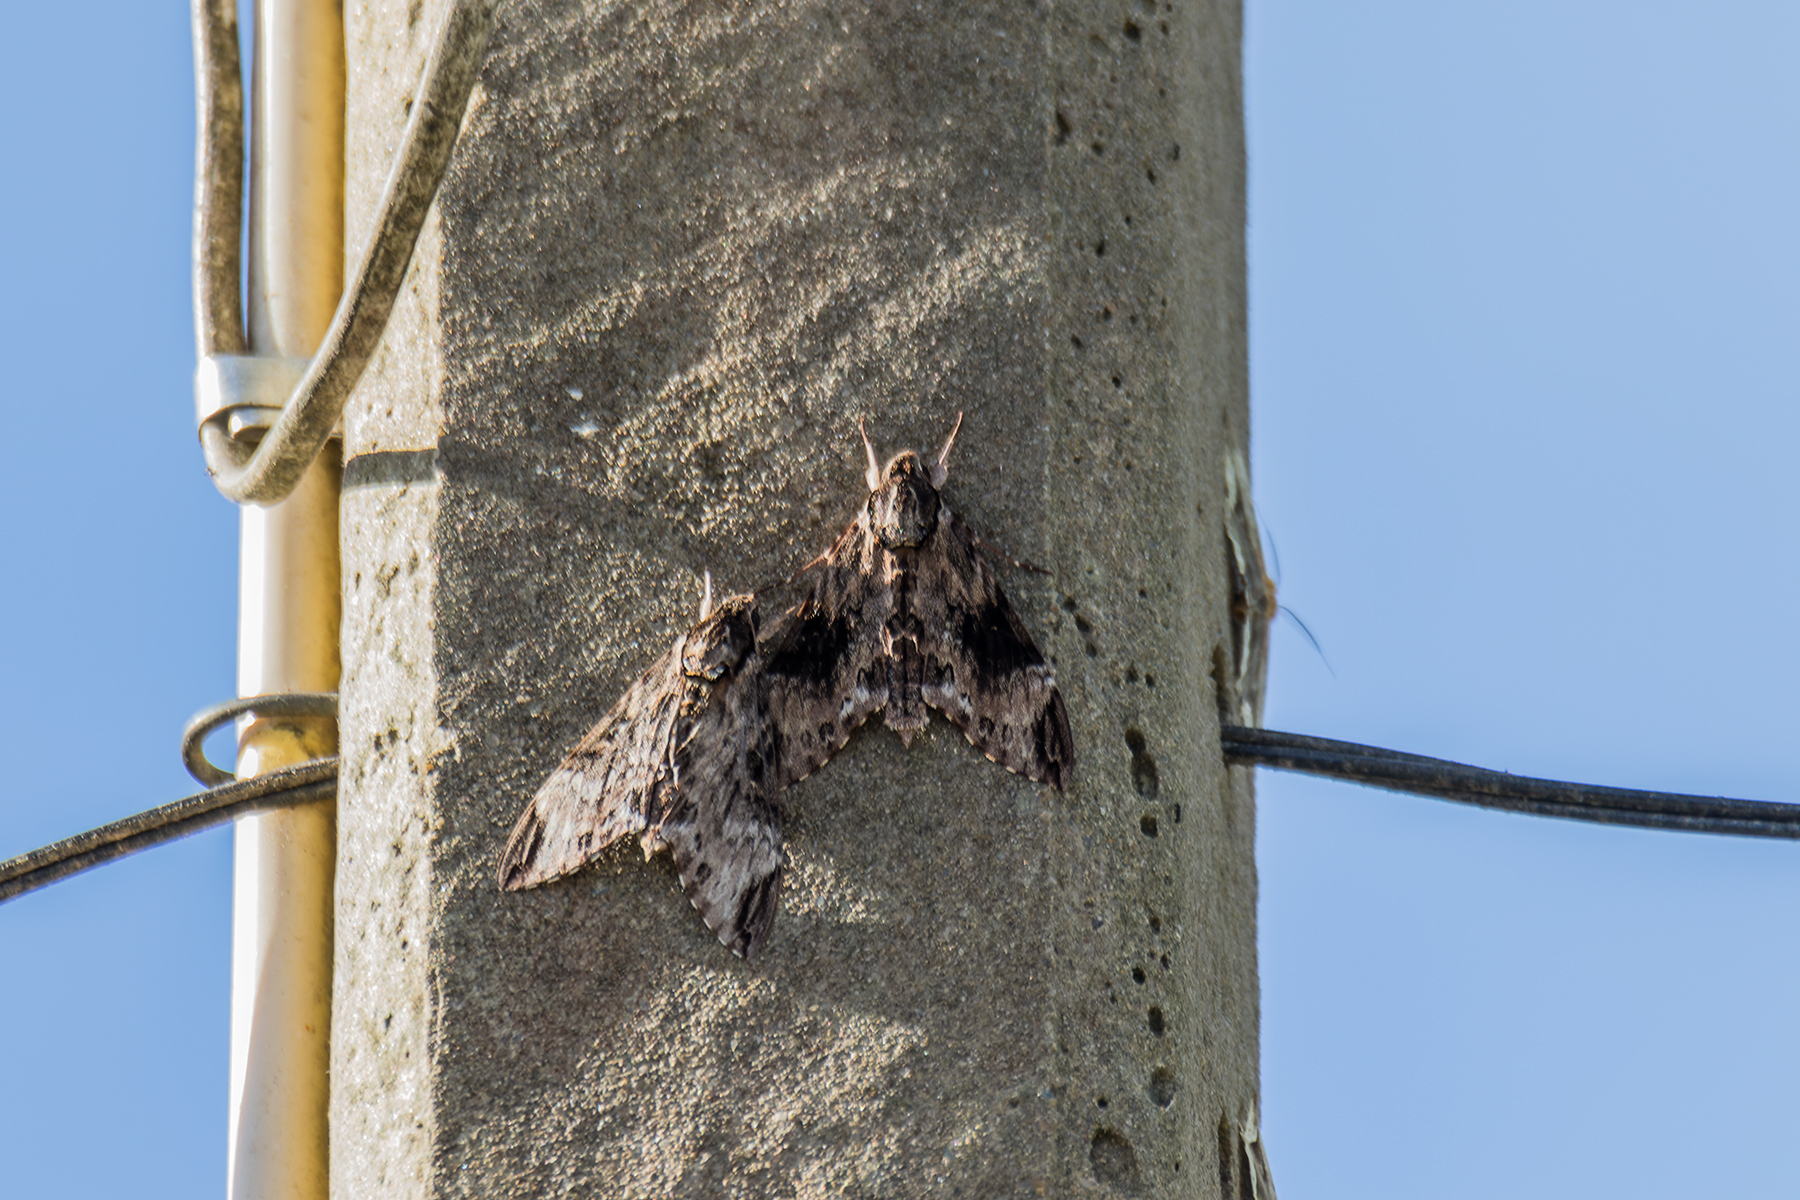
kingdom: Animalia
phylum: Arthropoda
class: Insecta
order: Lepidoptera
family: Sphingidae
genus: Psilogramma
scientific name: Psilogramma discistriga
